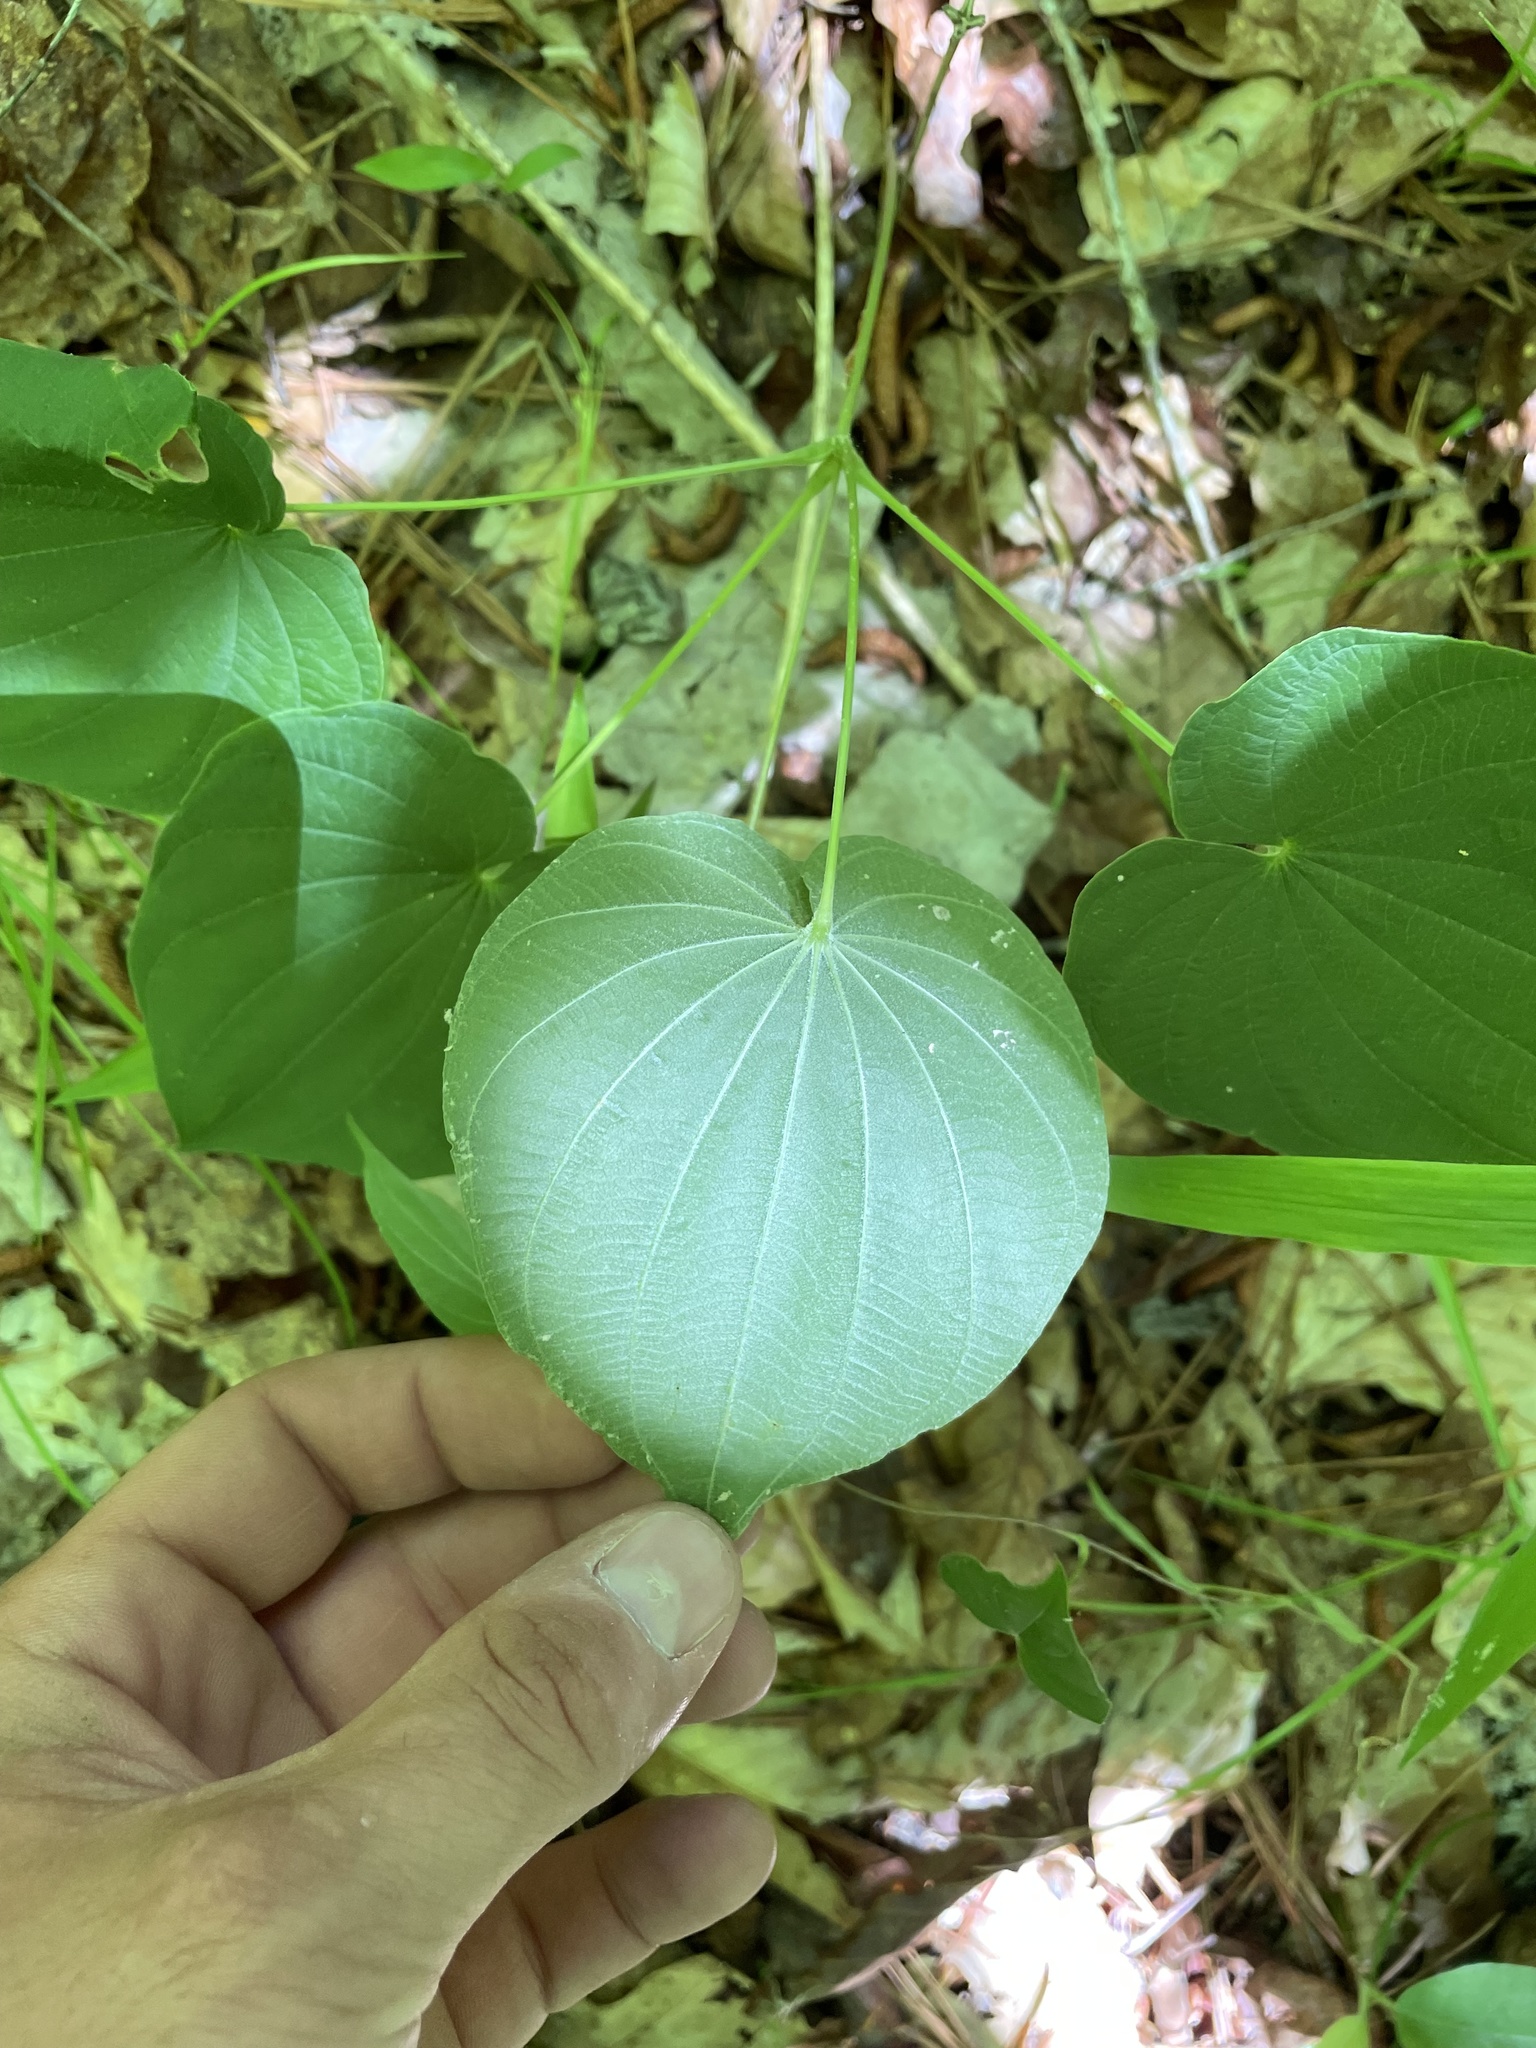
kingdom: Plantae
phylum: Tracheophyta
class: Liliopsida
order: Dioscoreales
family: Dioscoreaceae
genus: Dioscorea
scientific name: Dioscorea villosa
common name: Wild yam
